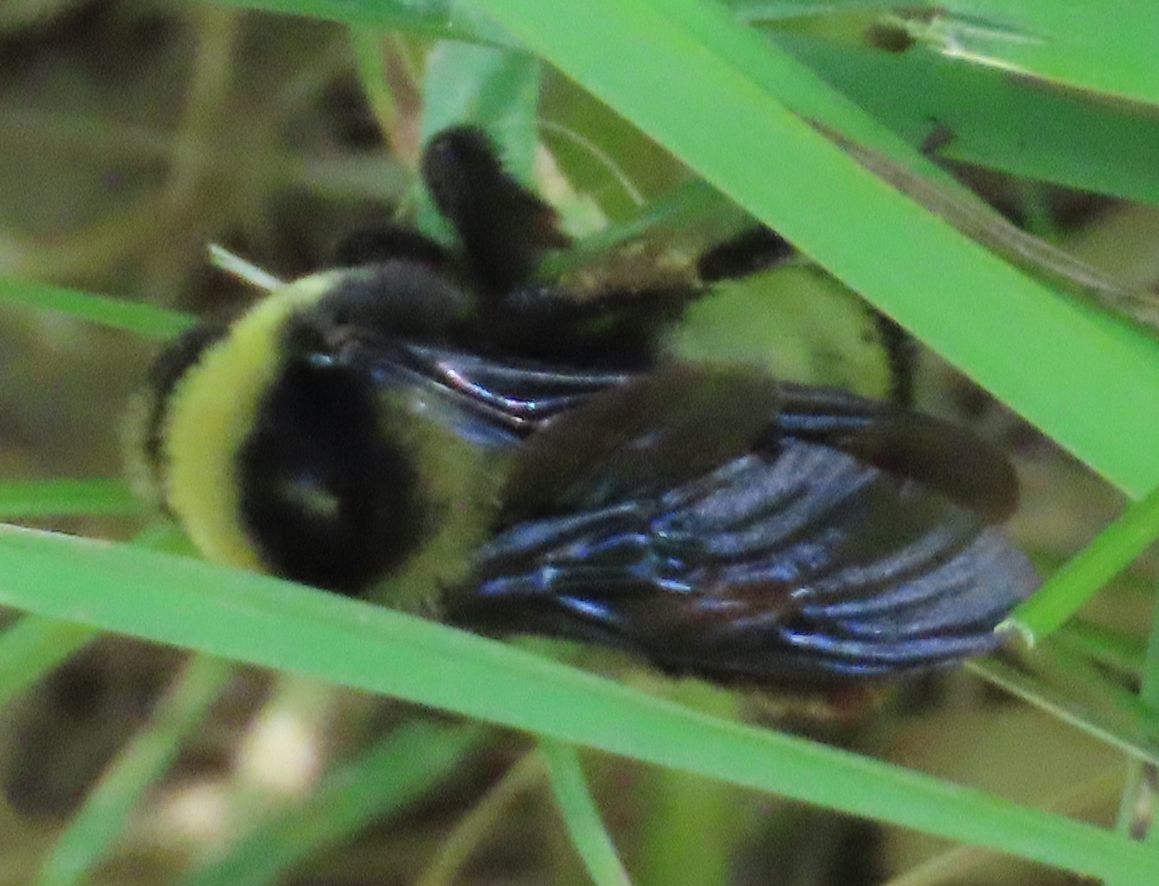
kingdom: Animalia
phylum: Arthropoda
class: Insecta
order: Hymenoptera
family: Apidae
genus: Bombus
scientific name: Bombus auricomus
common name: Black and gold bumble bee
